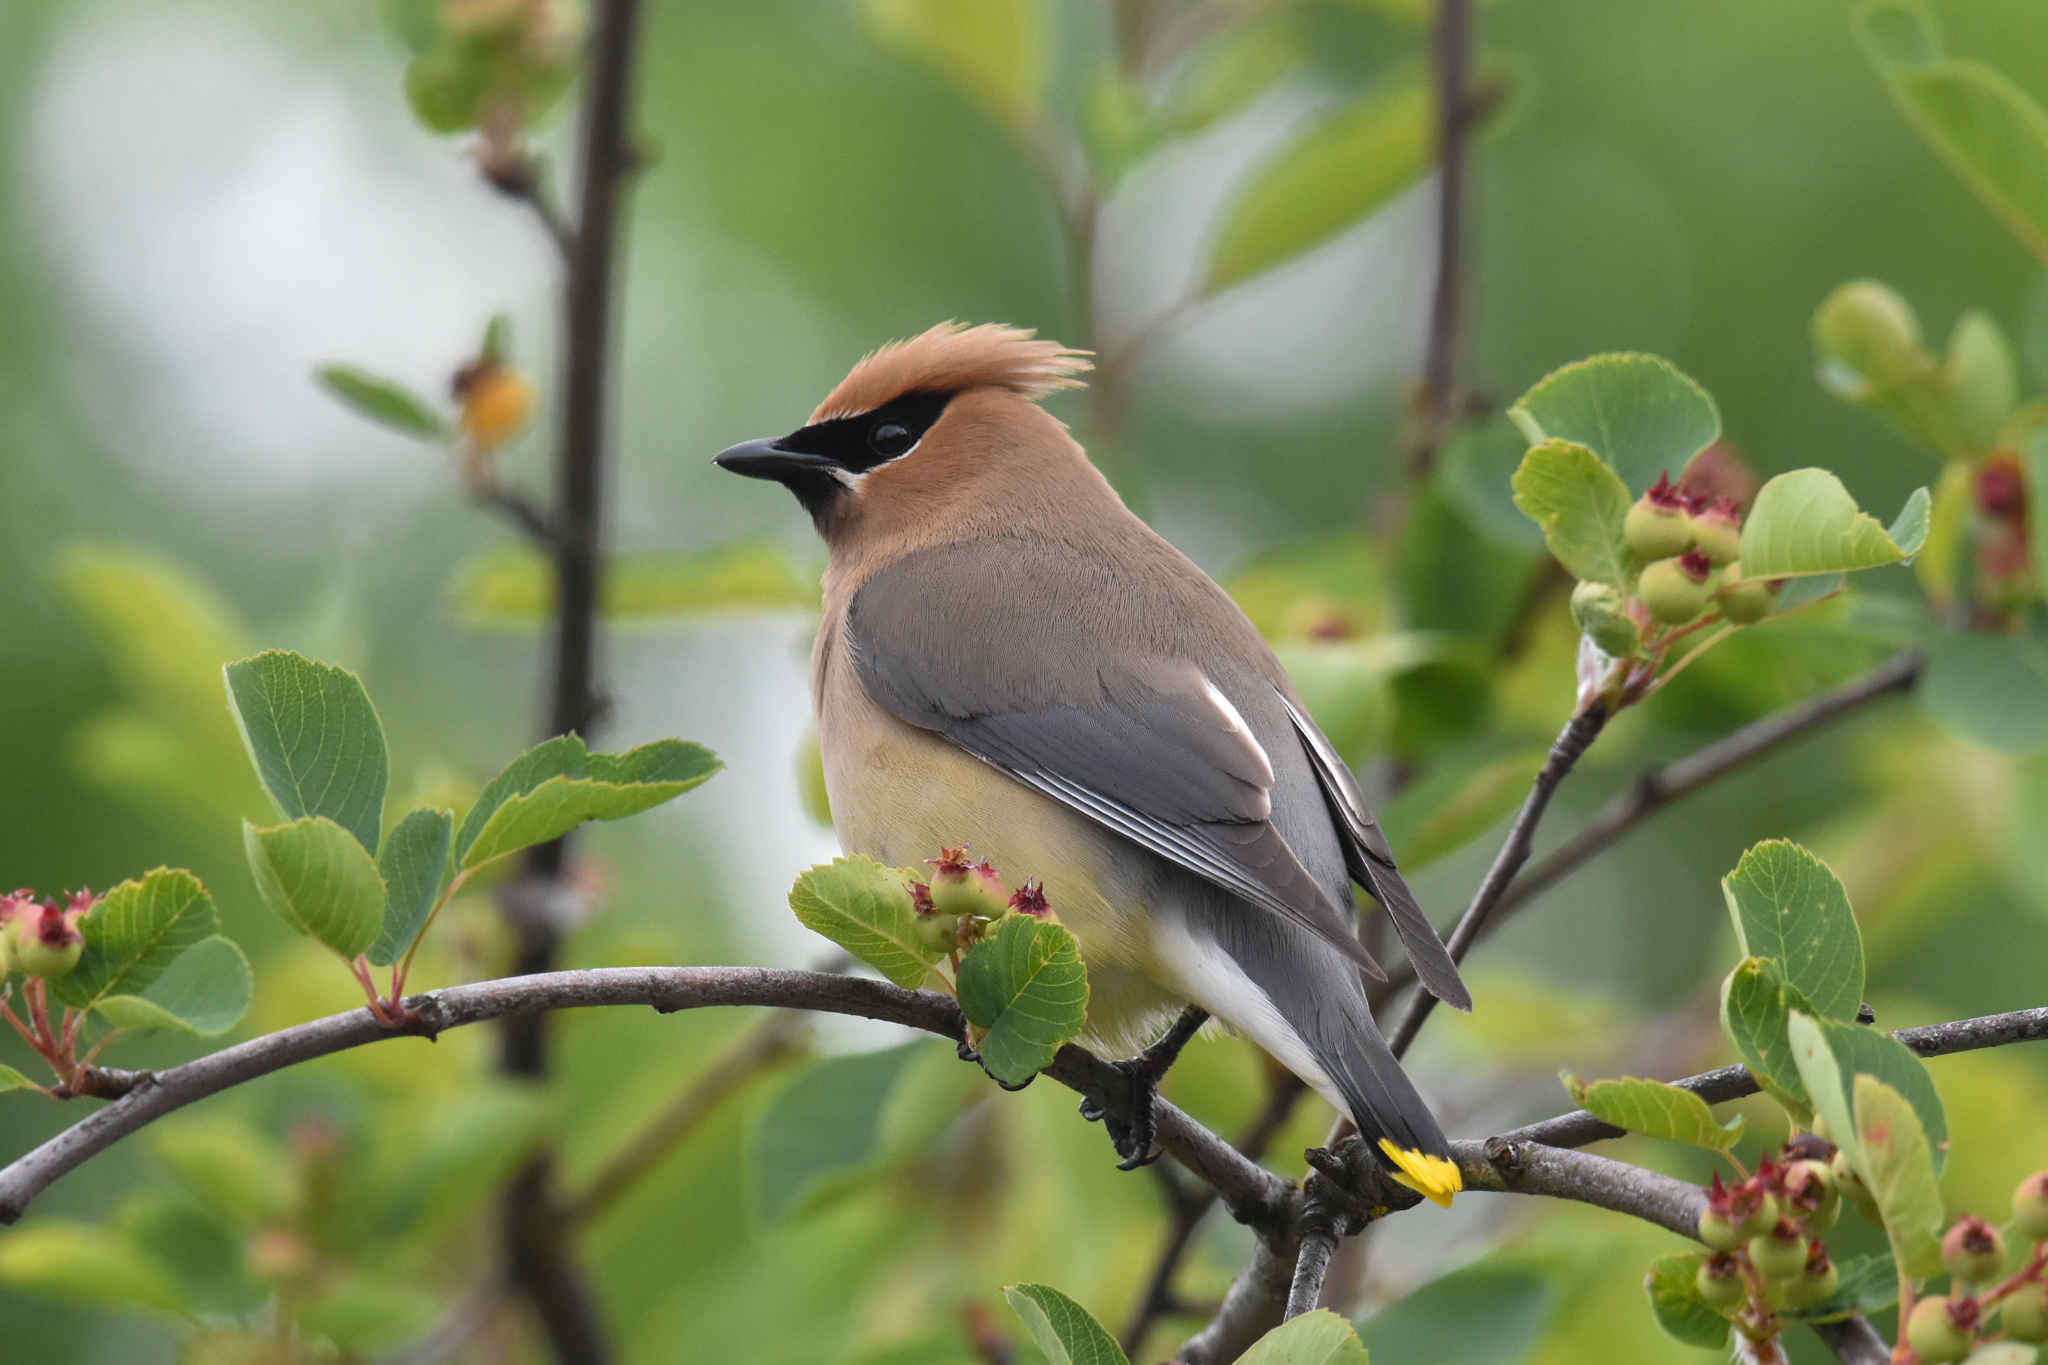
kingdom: Animalia
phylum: Chordata
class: Aves
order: Passeriformes
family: Bombycillidae
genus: Bombycilla
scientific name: Bombycilla cedrorum
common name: Cedar waxwing
